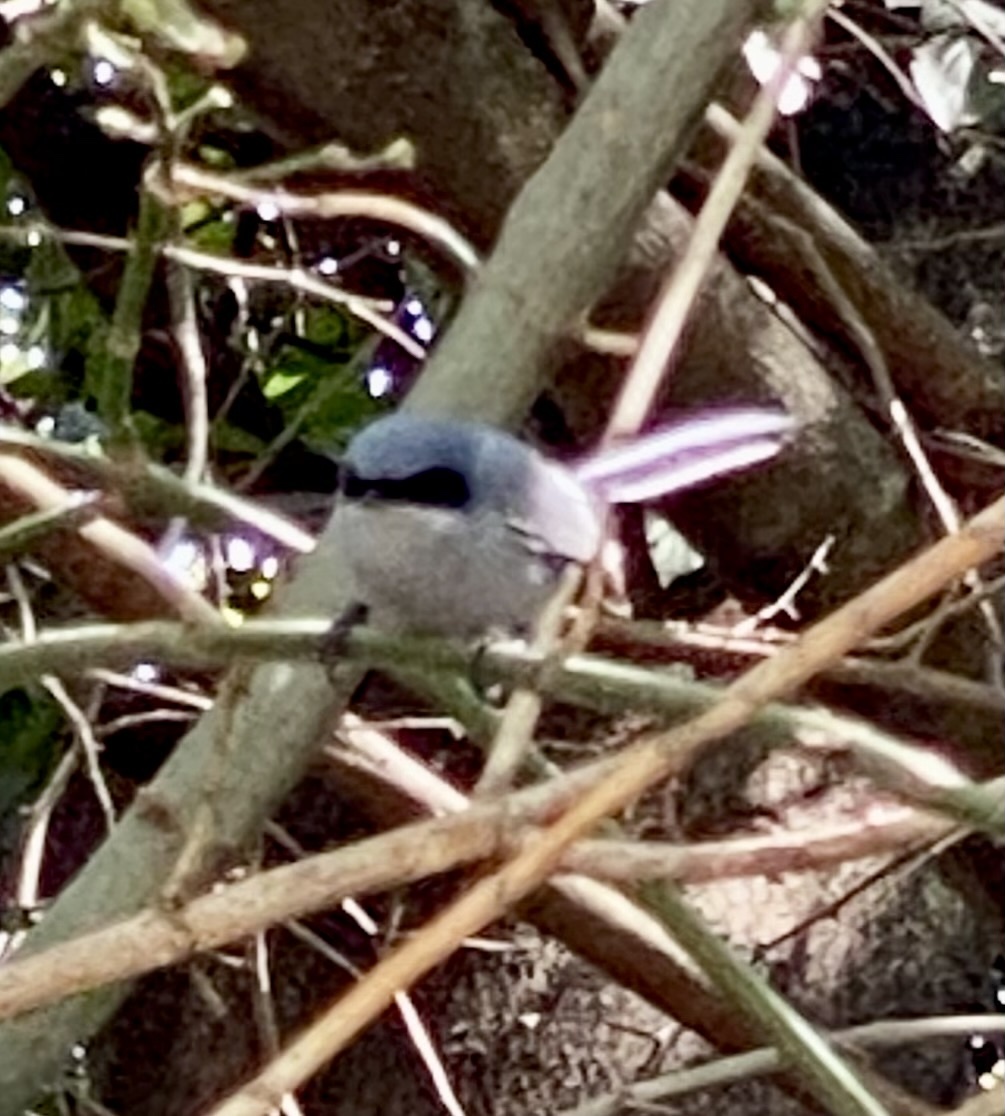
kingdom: Animalia
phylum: Chordata
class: Aves
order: Passeriformes
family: Polioptilidae
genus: Polioptila
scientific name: Polioptila dumicola
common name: Masked gnatcatcher
